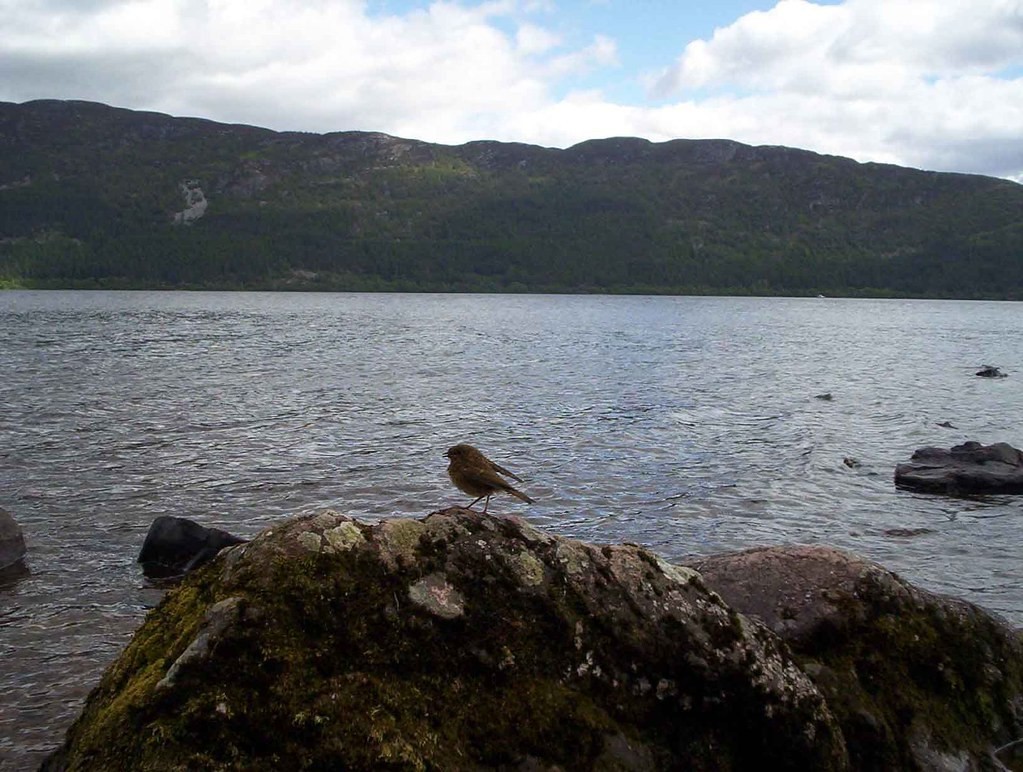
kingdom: Animalia
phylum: Chordata
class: Aves
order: Passeriformes
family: Muscicapidae
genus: Erithacus
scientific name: Erithacus rubecula
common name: European robin
